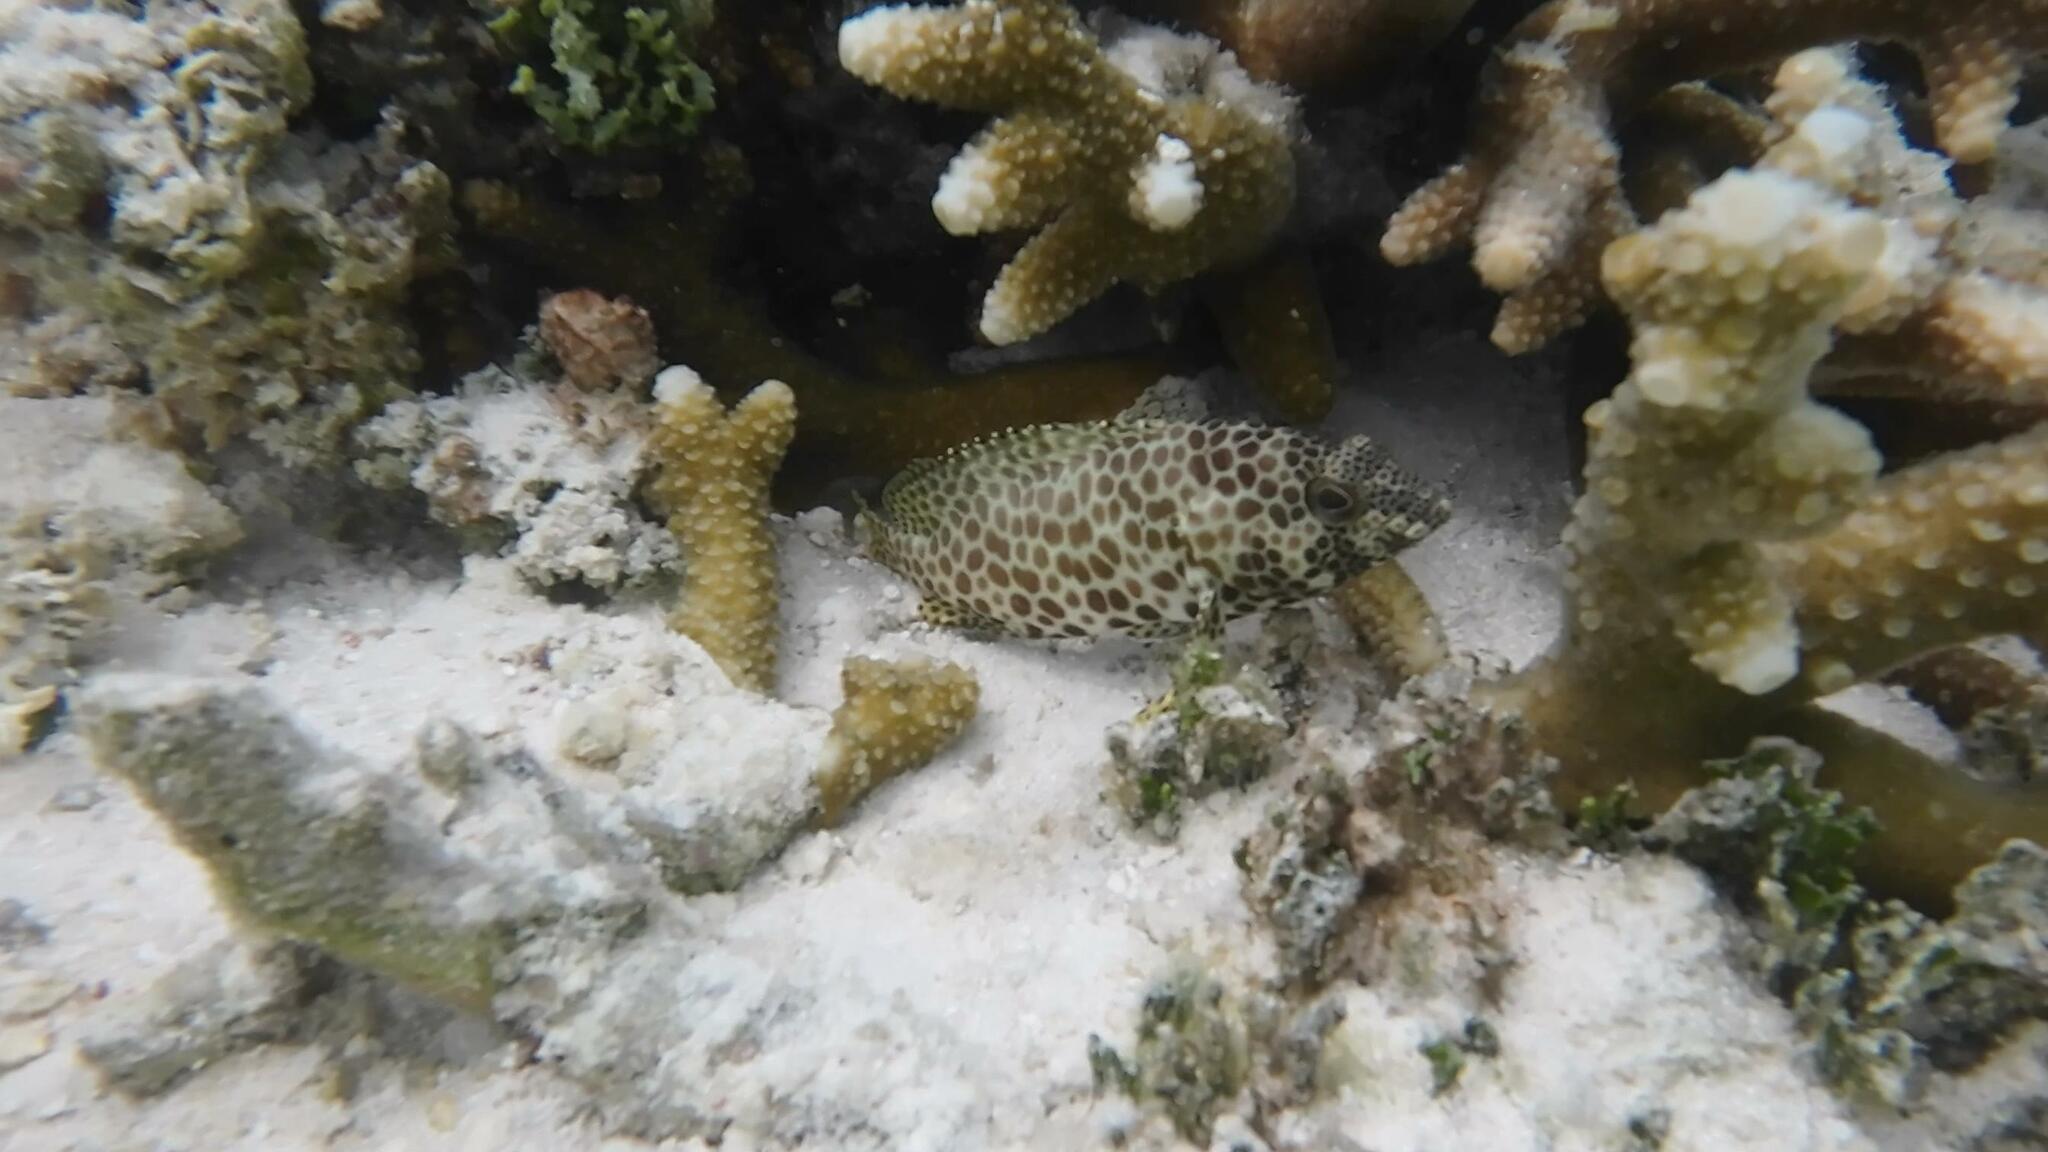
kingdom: Animalia
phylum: Chordata
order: Perciformes
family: Serranidae
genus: Epinephelus
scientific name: Epinephelus merra
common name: Honeycomb grouper
